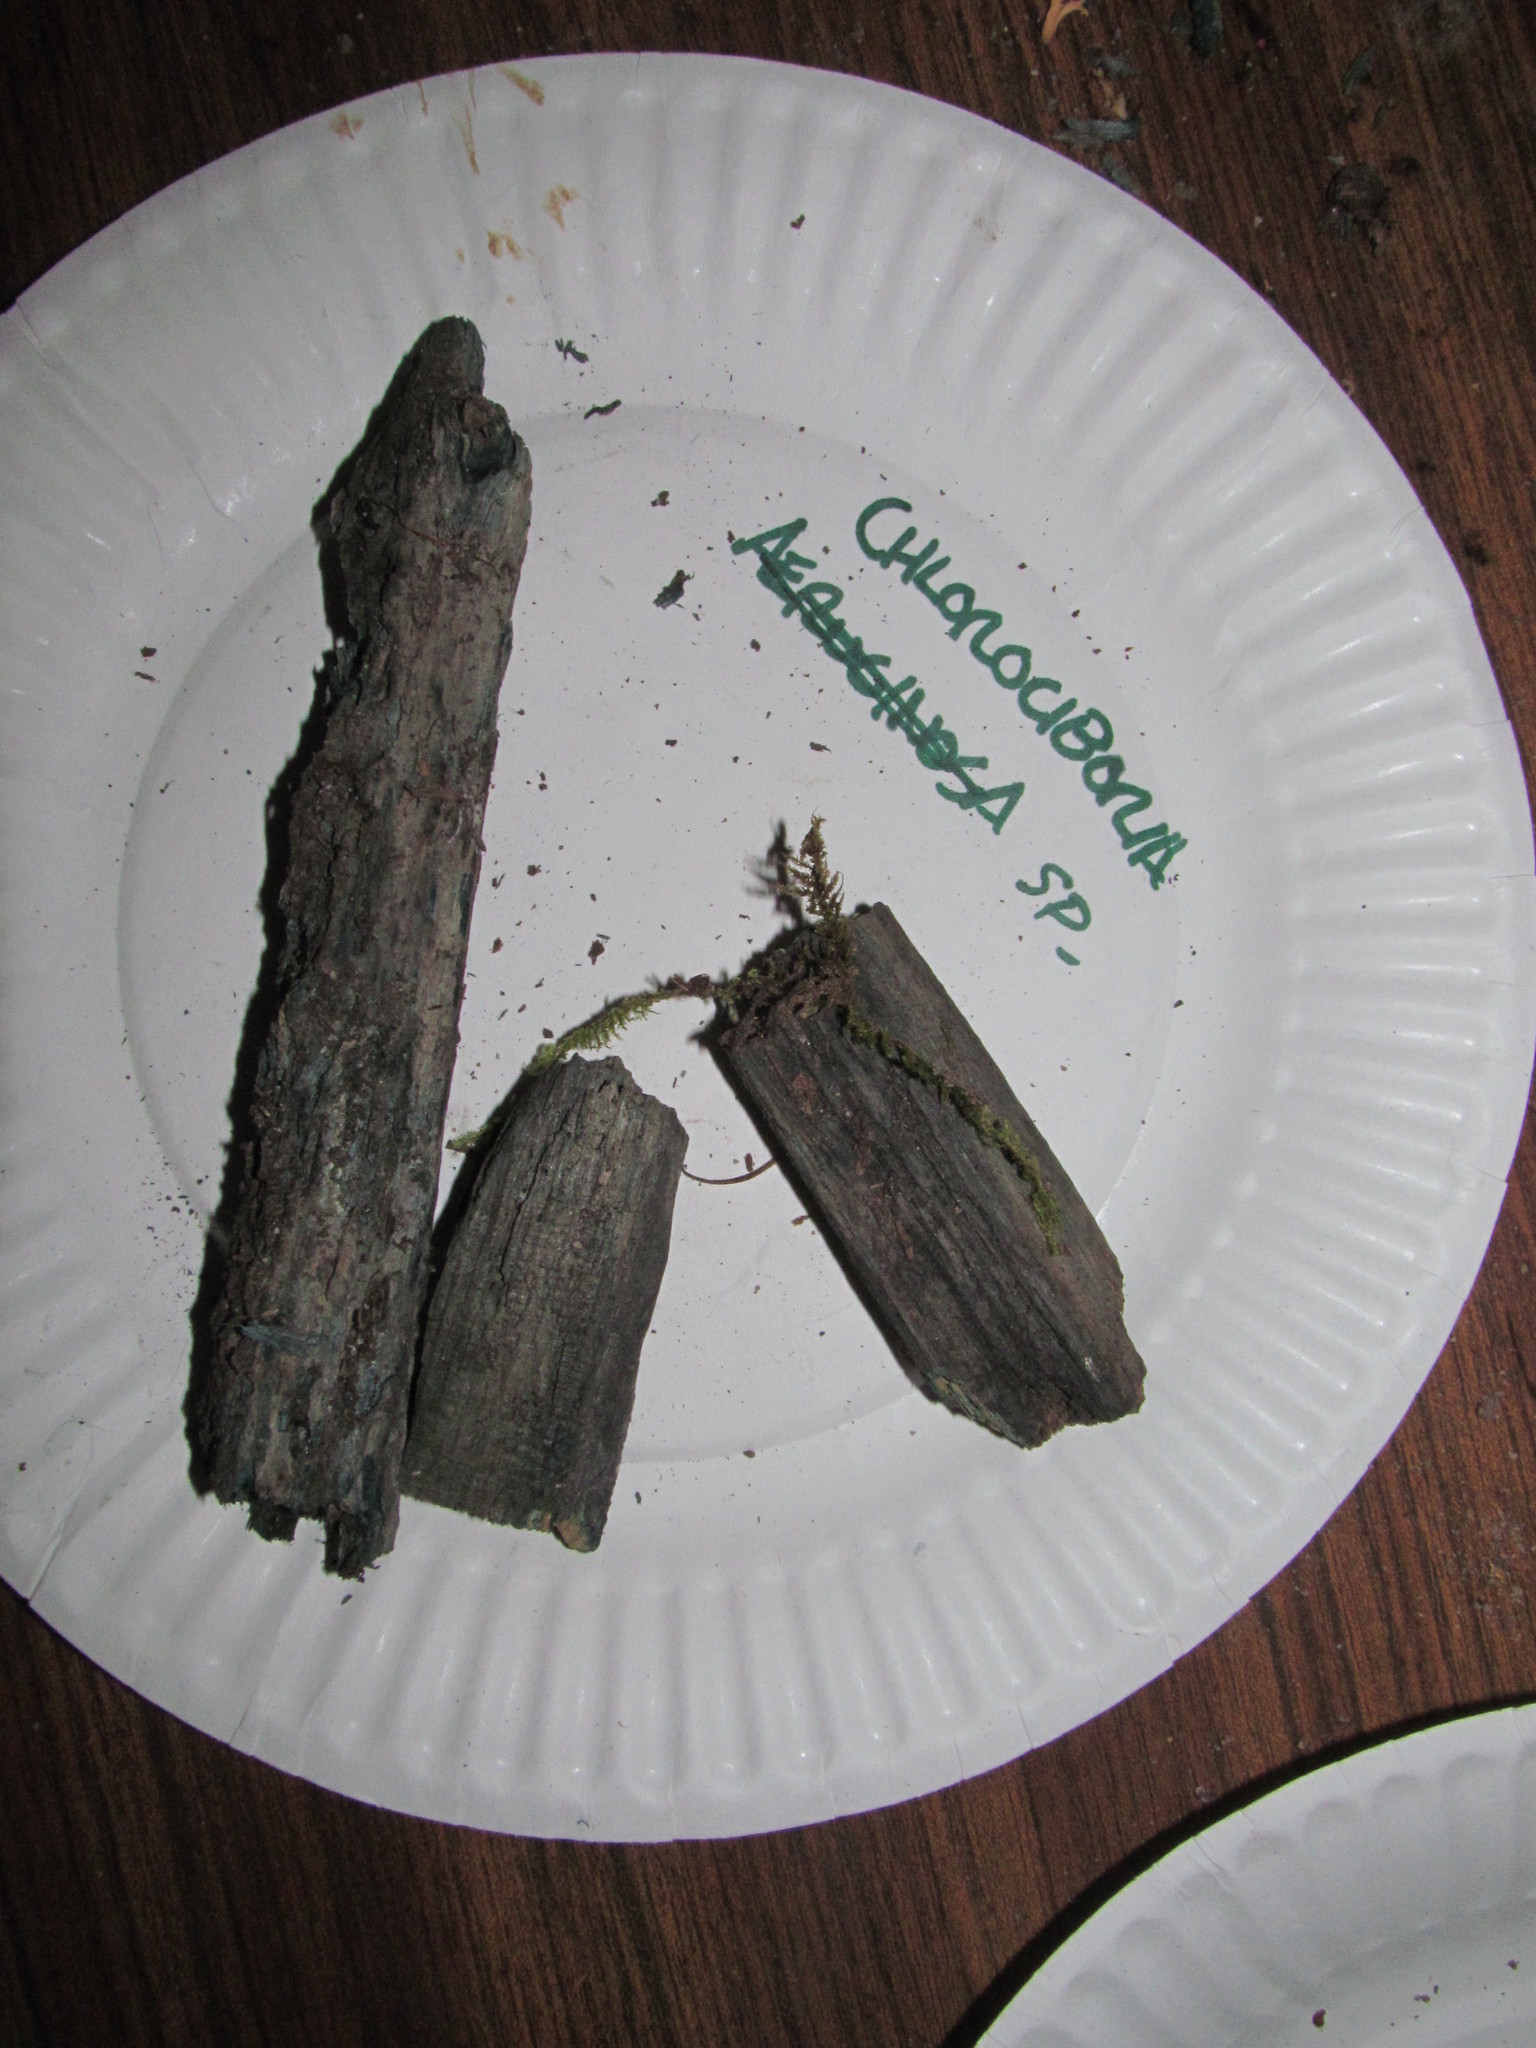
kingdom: Fungi
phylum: Ascomycota
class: Leotiomycetes
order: Helotiales
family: Chlorociboriaceae
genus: Chlorociboria
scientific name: Chlorociboria
